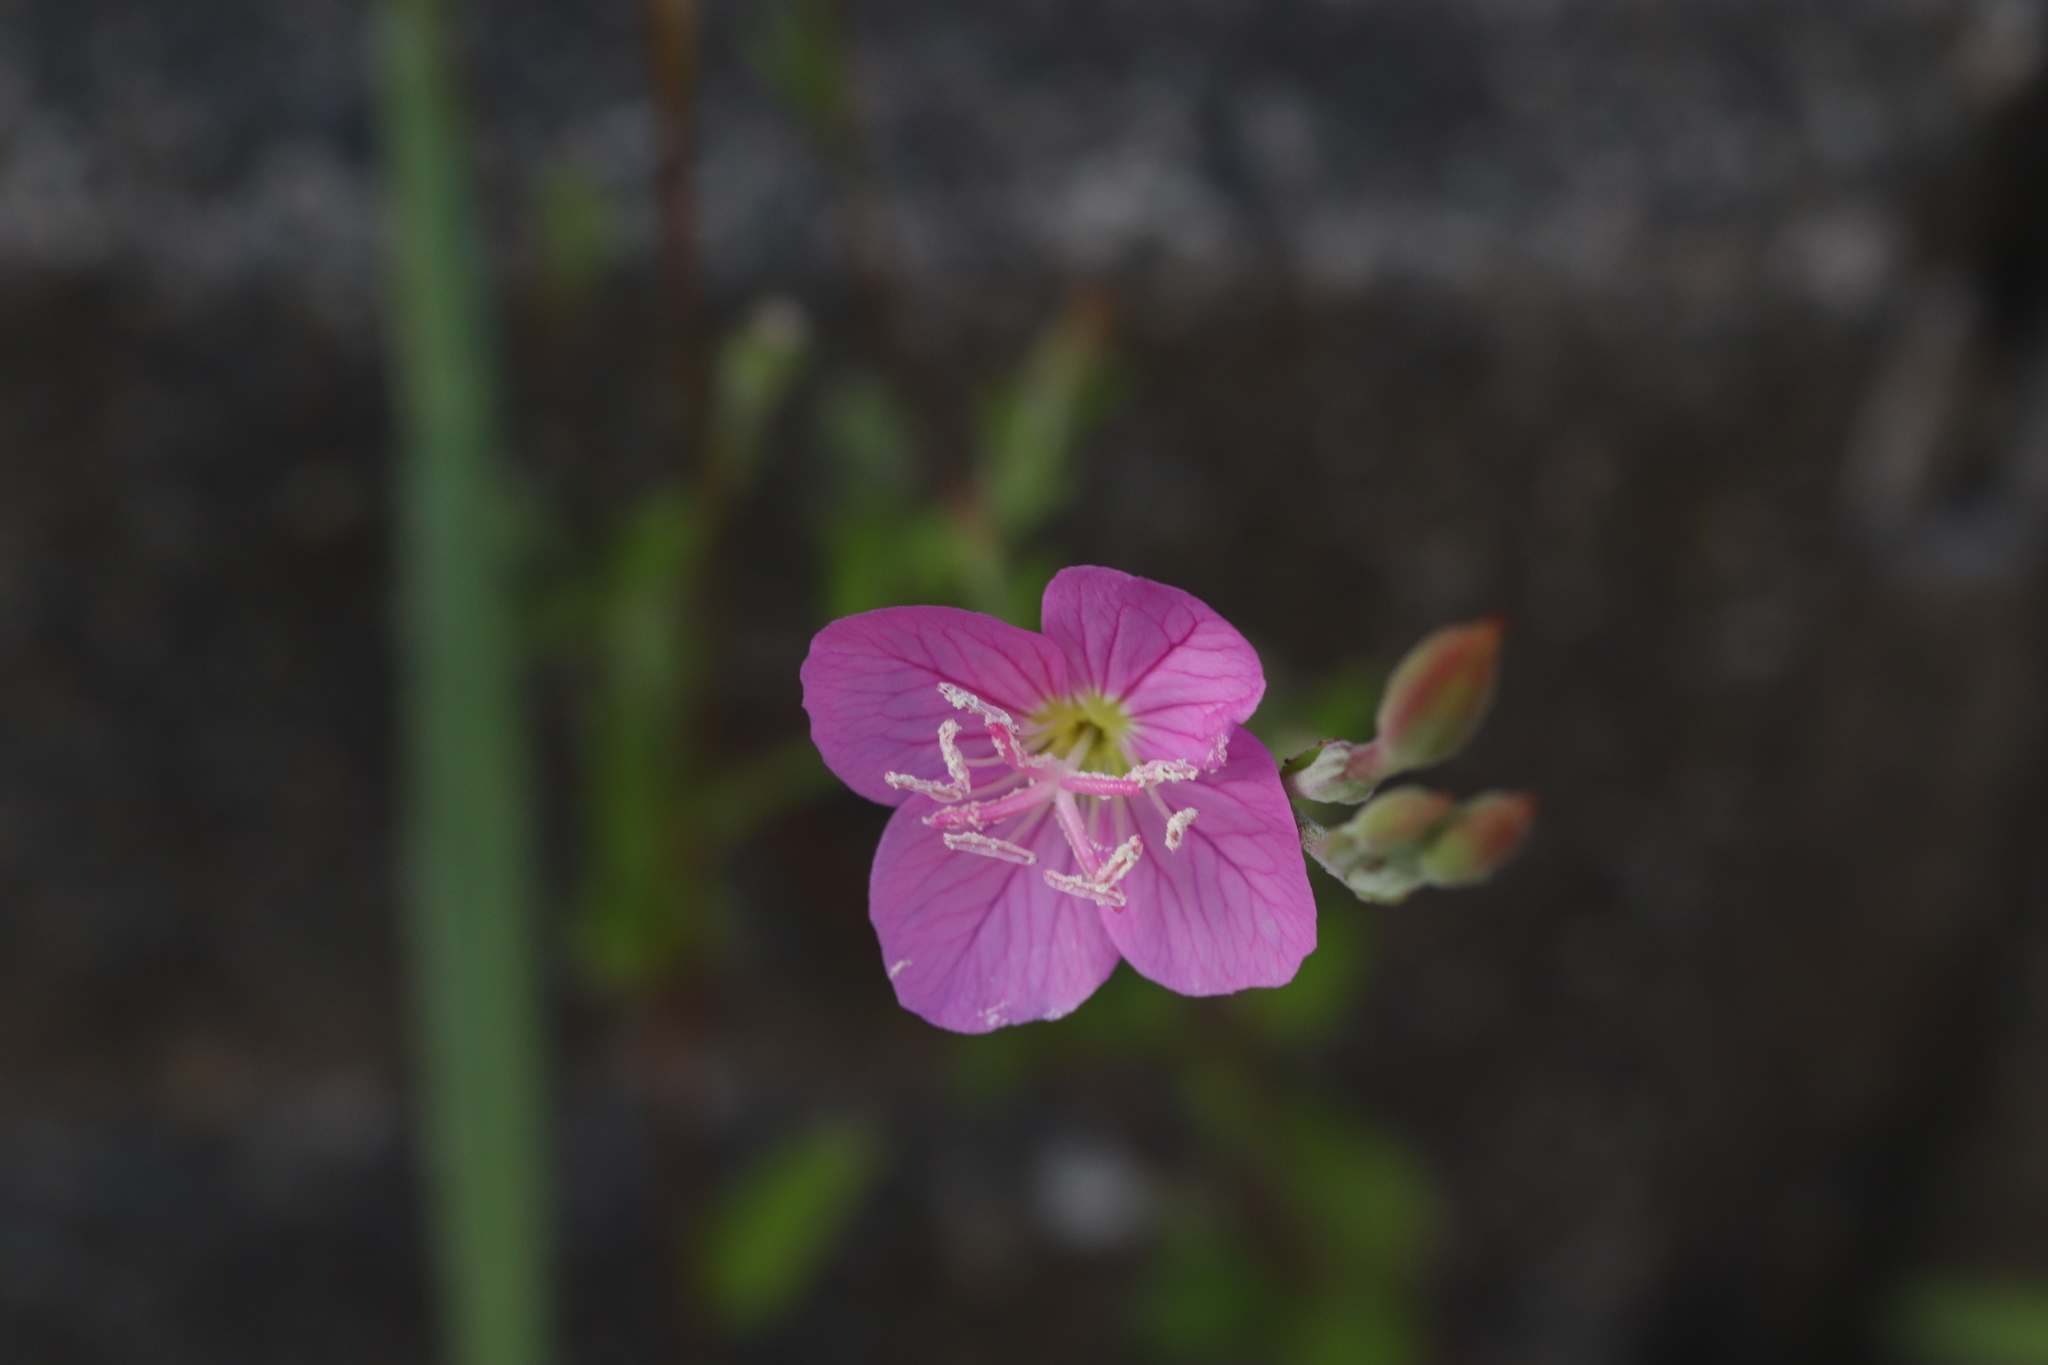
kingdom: Plantae
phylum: Tracheophyta
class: Magnoliopsida
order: Myrtales
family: Onagraceae
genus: Oenothera
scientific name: Oenothera rosea
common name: Rosy evening-primrose
